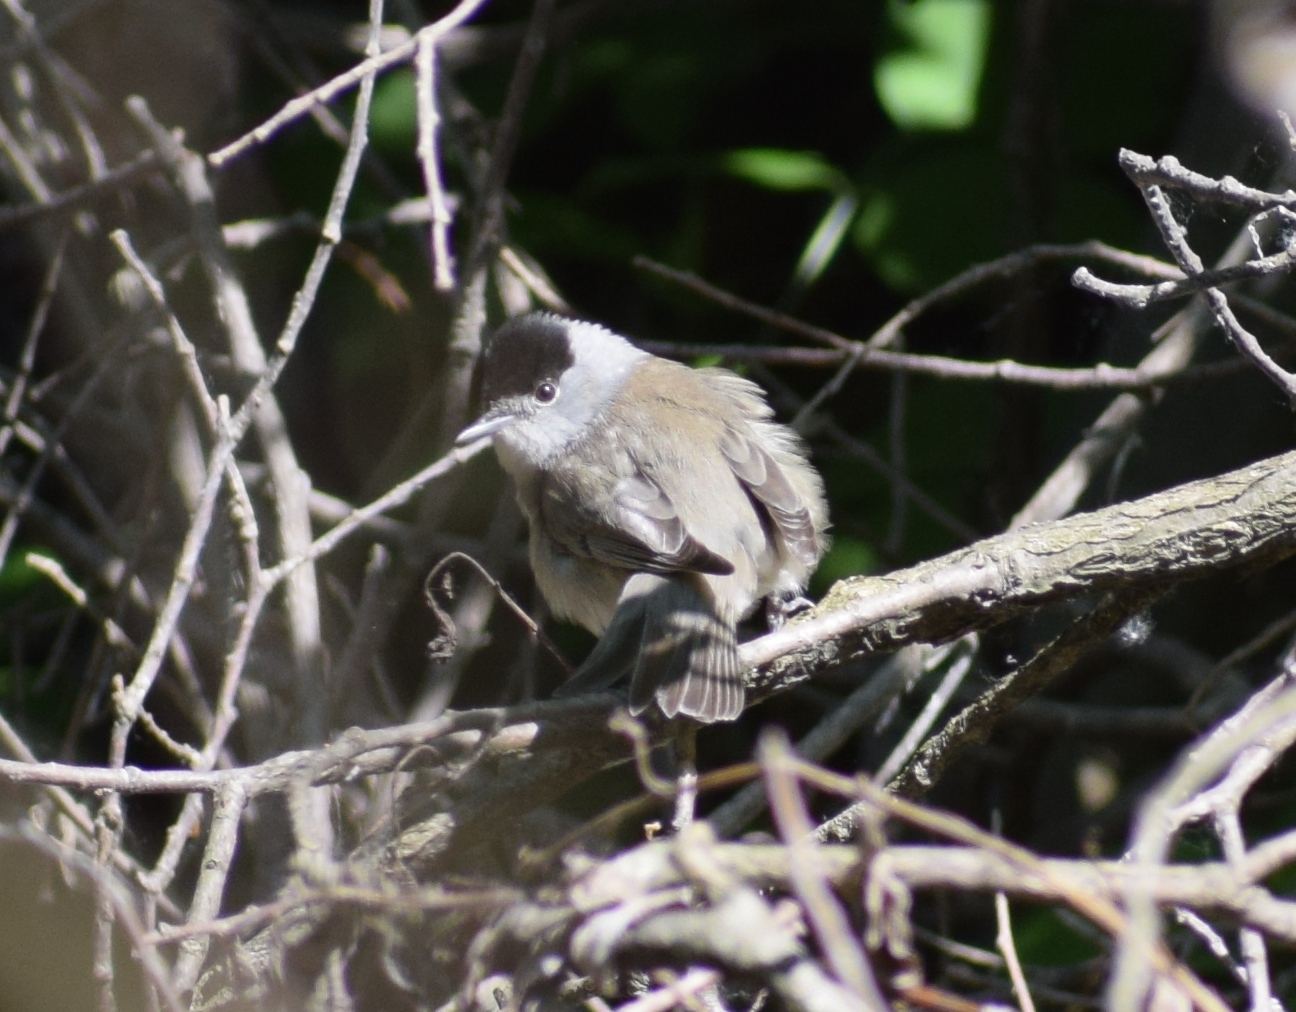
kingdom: Animalia
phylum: Chordata
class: Aves
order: Passeriformes
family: Sylviidae
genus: Sylvia
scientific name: Sylvia atricapilla
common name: Eurasian blackcap
